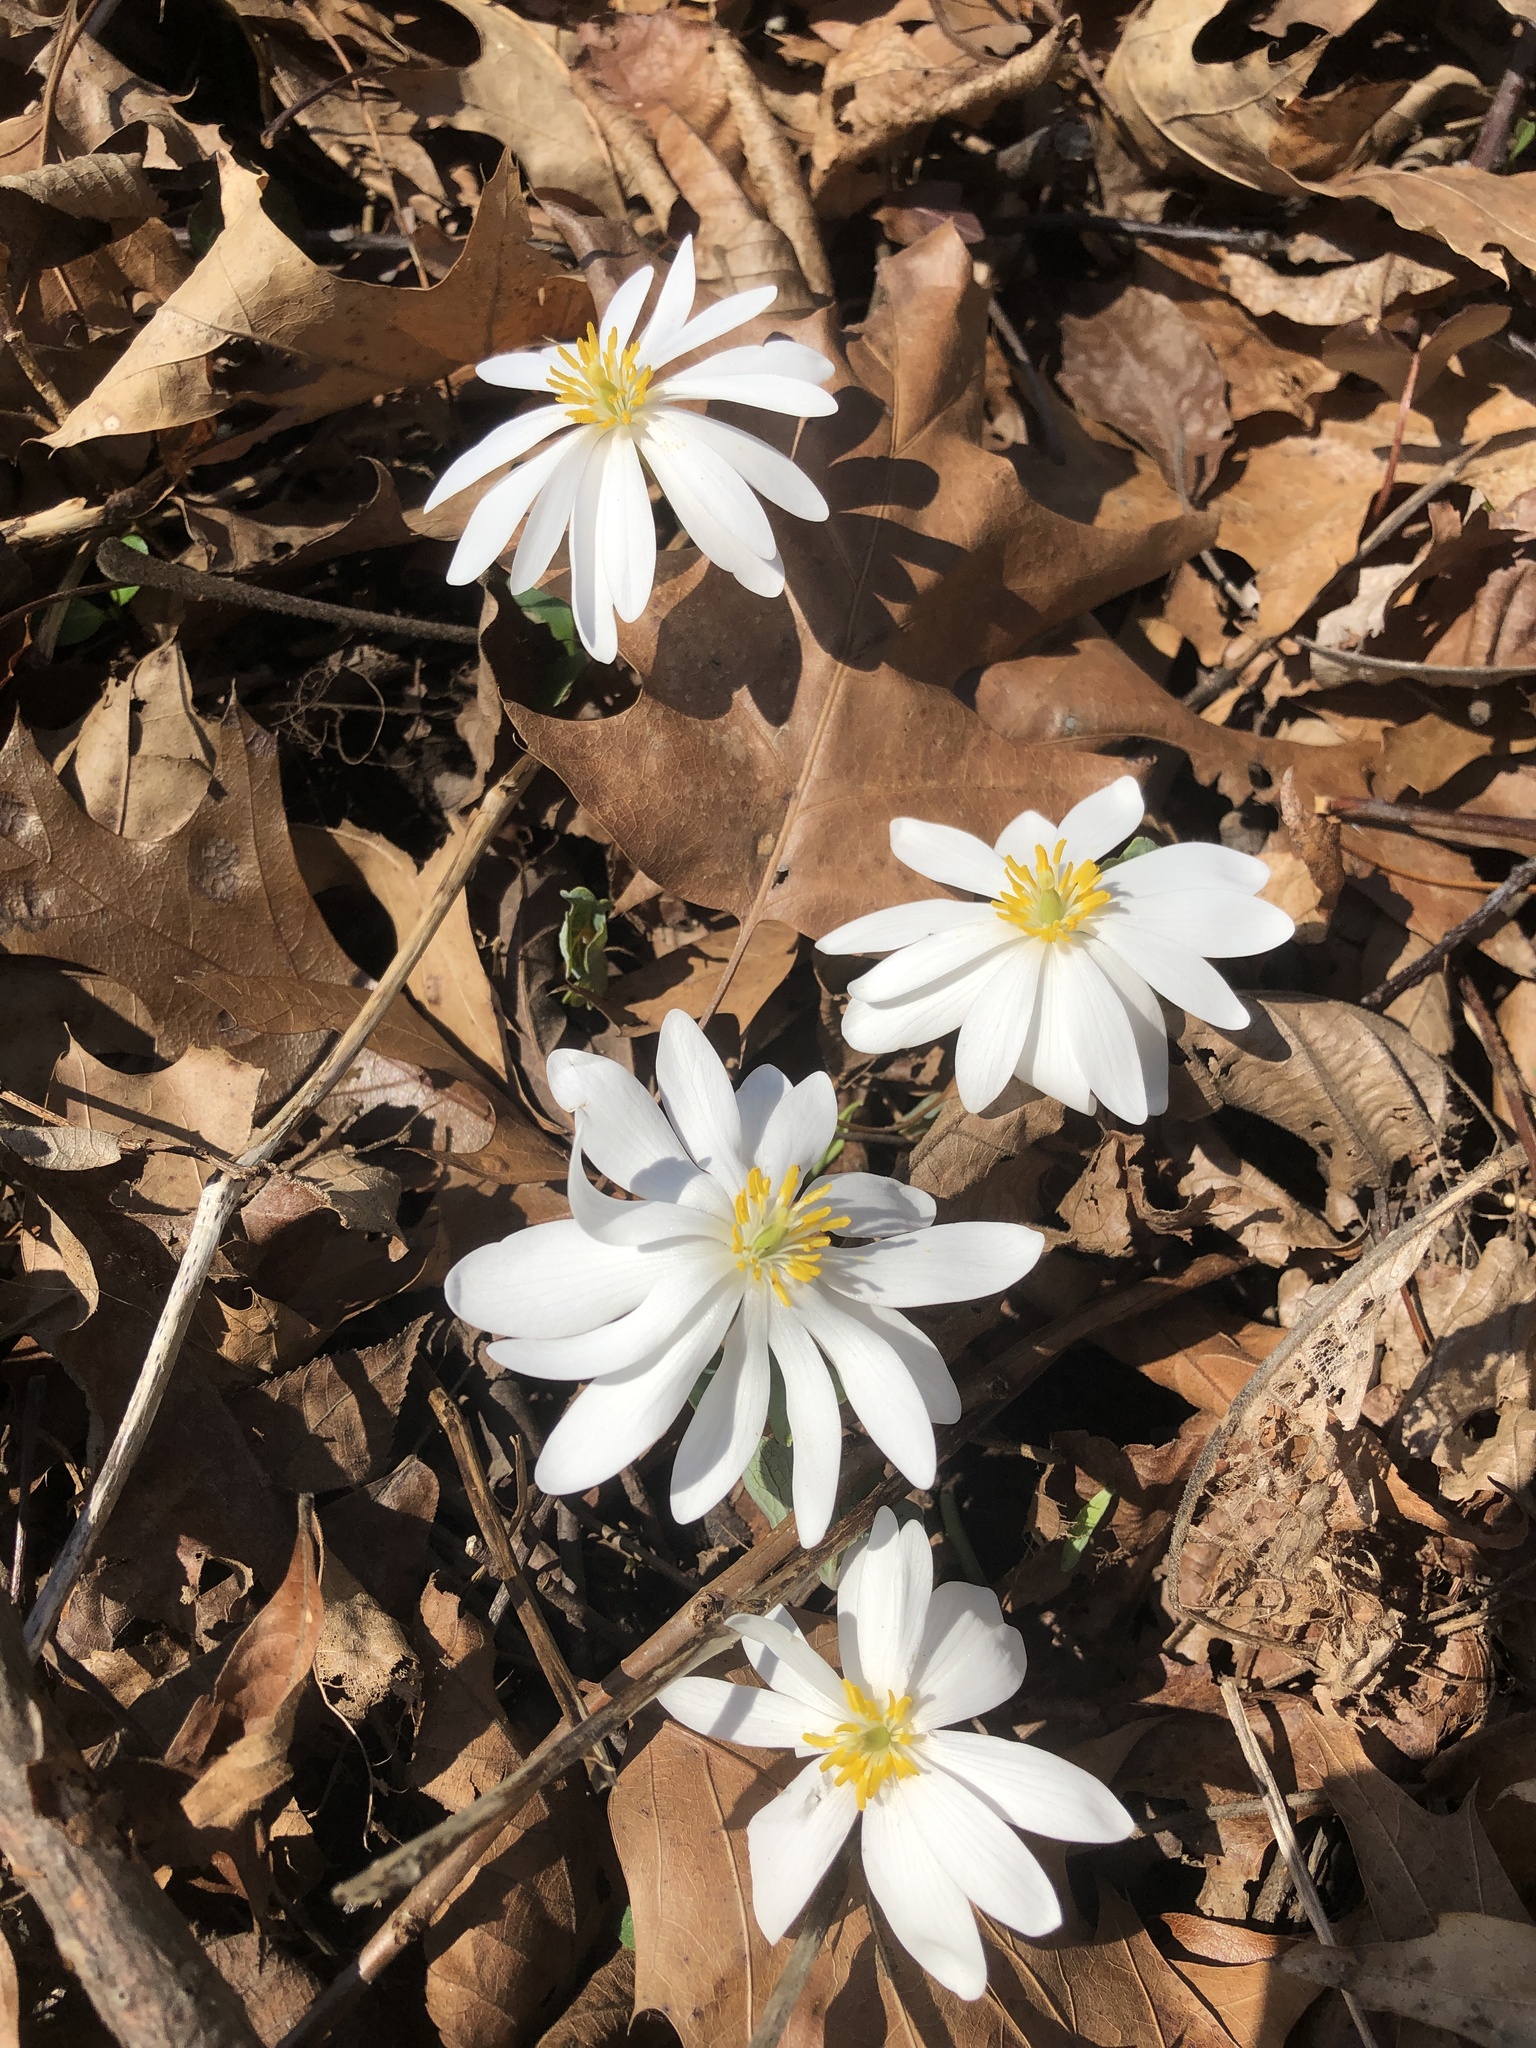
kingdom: Plantae
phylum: Tracheophyta
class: Magnoliopsida
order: Ranunculales
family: Papaveraceae
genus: Sanguinaria
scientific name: Sanguinaria canadensis
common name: Bloodroot
